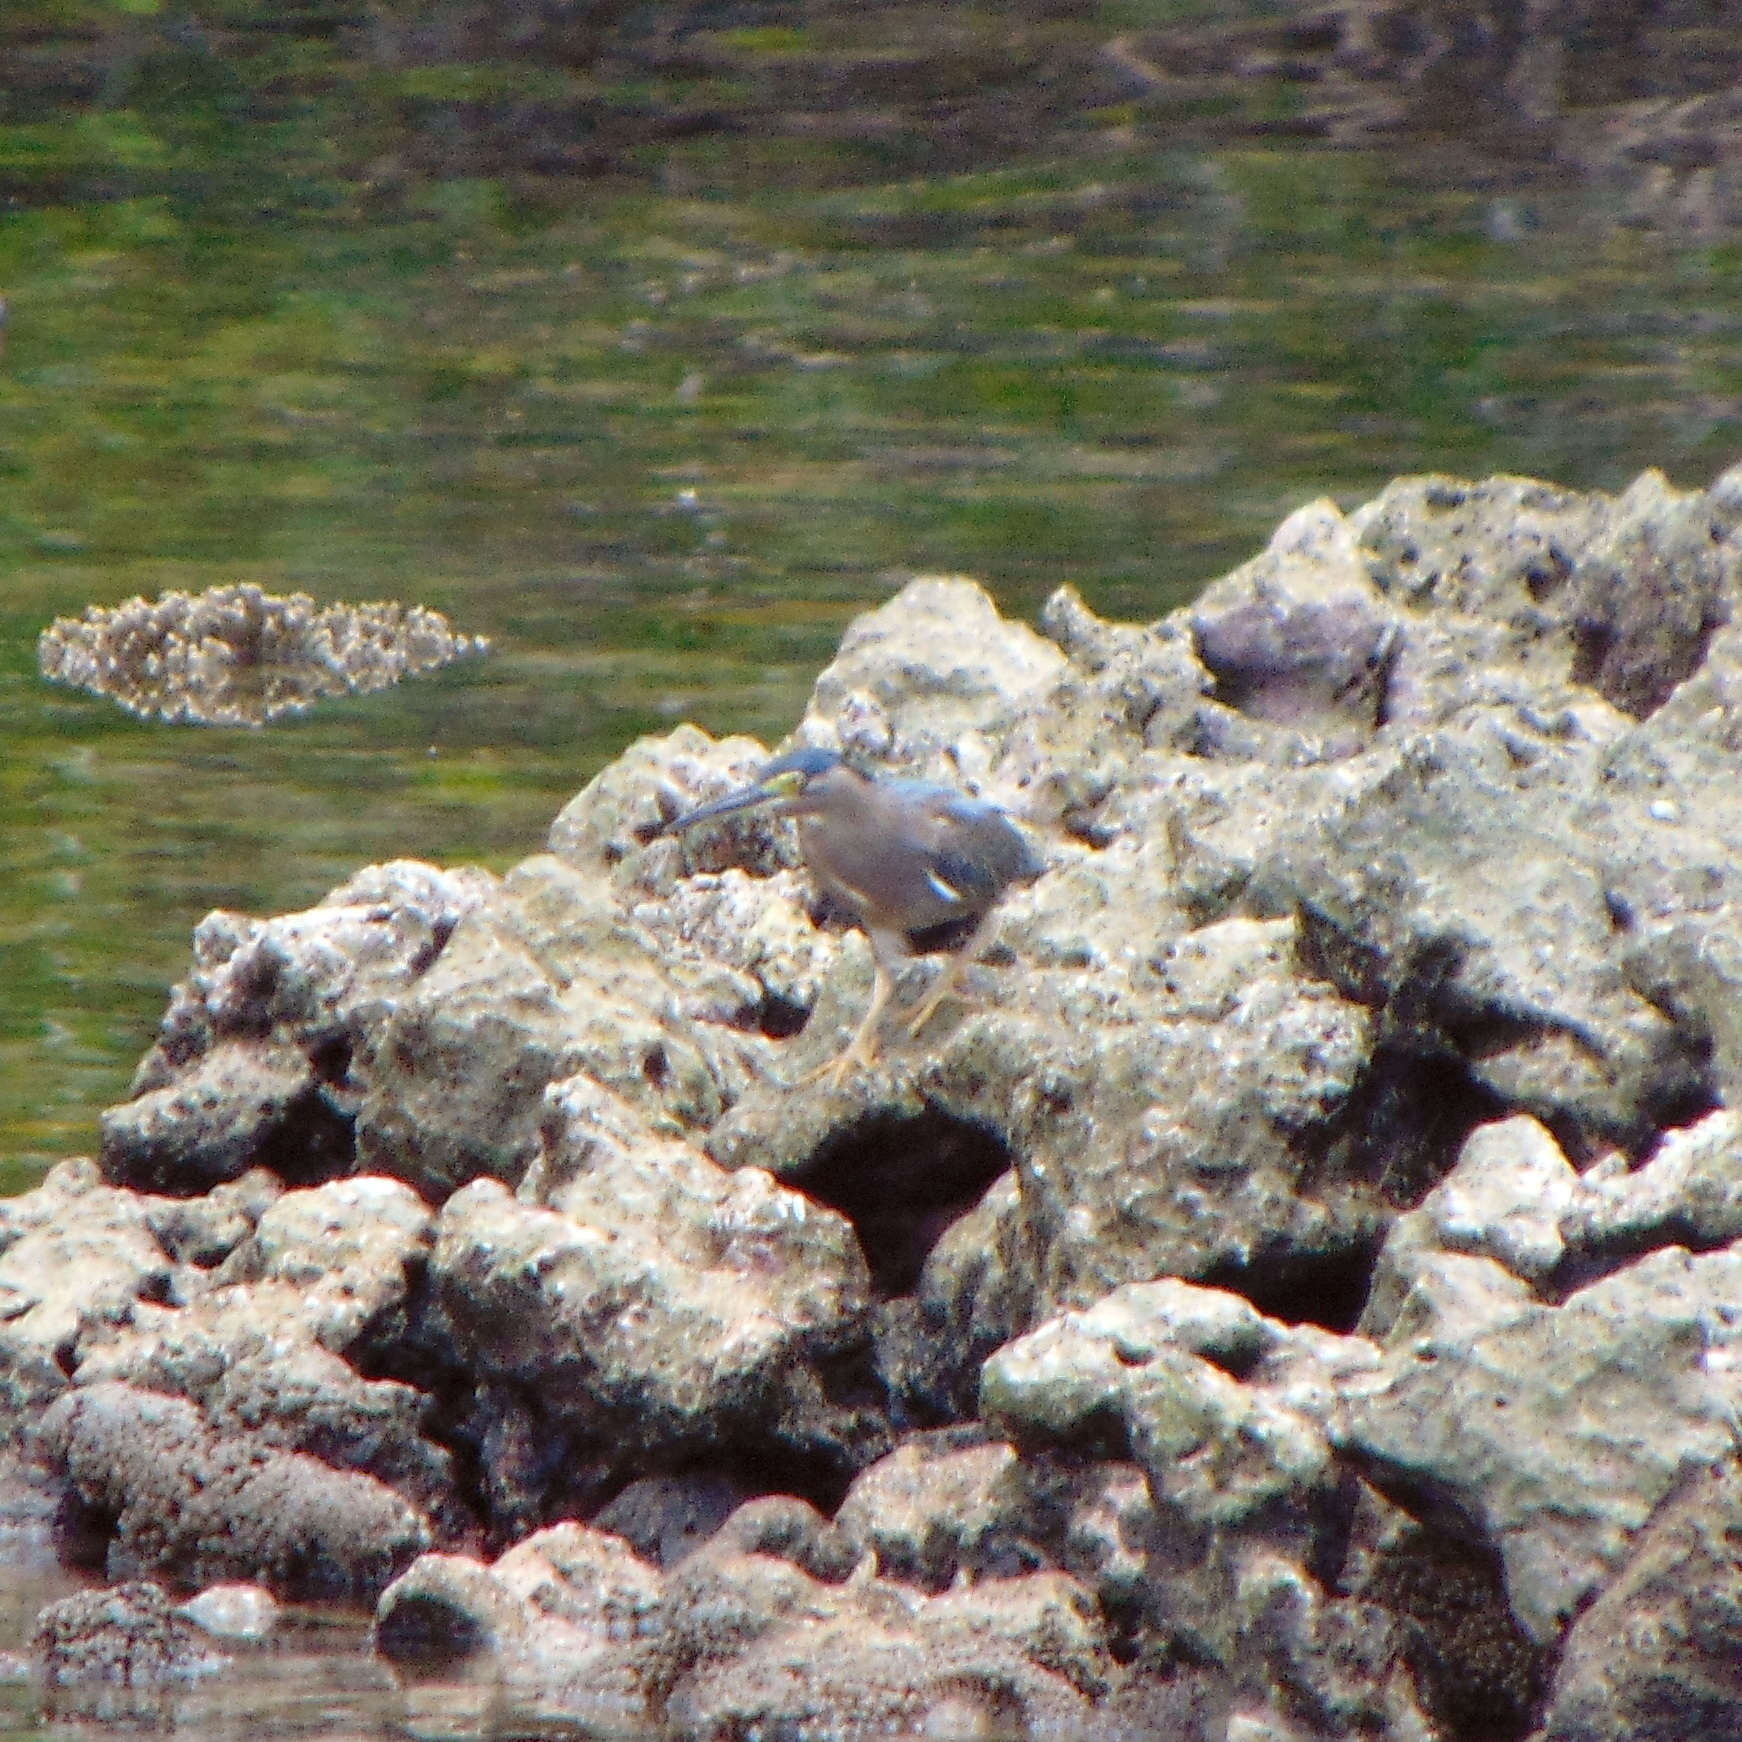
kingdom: Animalia
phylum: Chordata
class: Aves
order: Pelecaniformes
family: Ardeidae
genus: Butorides
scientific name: Butorides striata
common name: Striated heron
